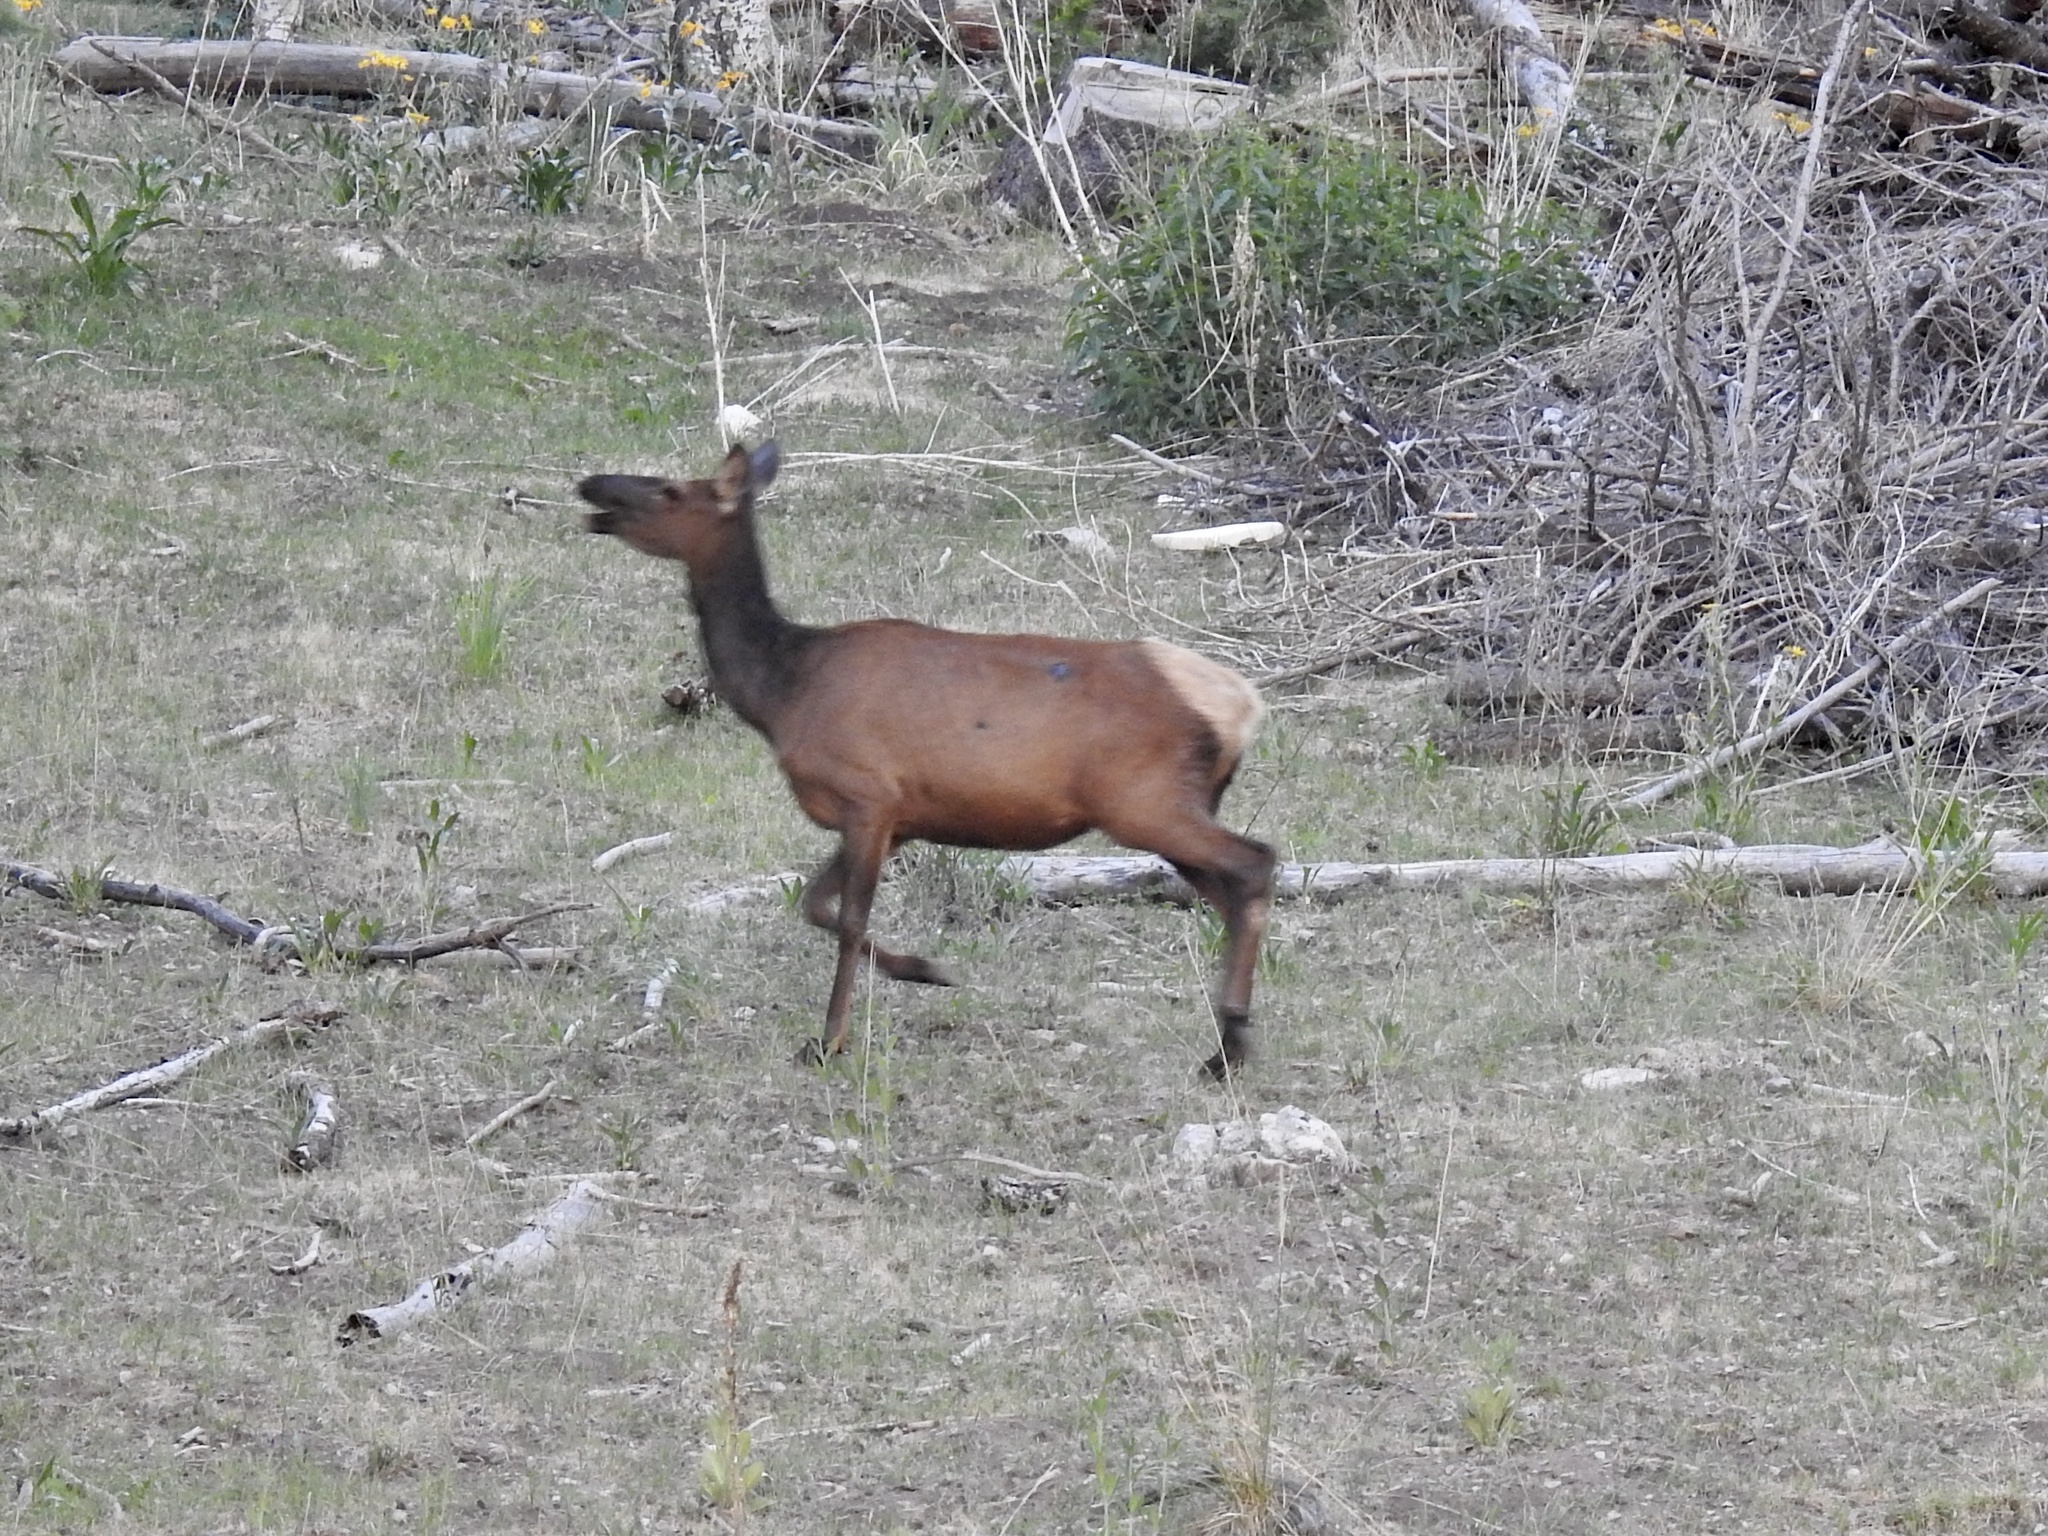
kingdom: Animalia
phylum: Chordata
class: Mammalia
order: Artiodactyla
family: Cervidae
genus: Cervus
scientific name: Cervus elaphus
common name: Red deer
